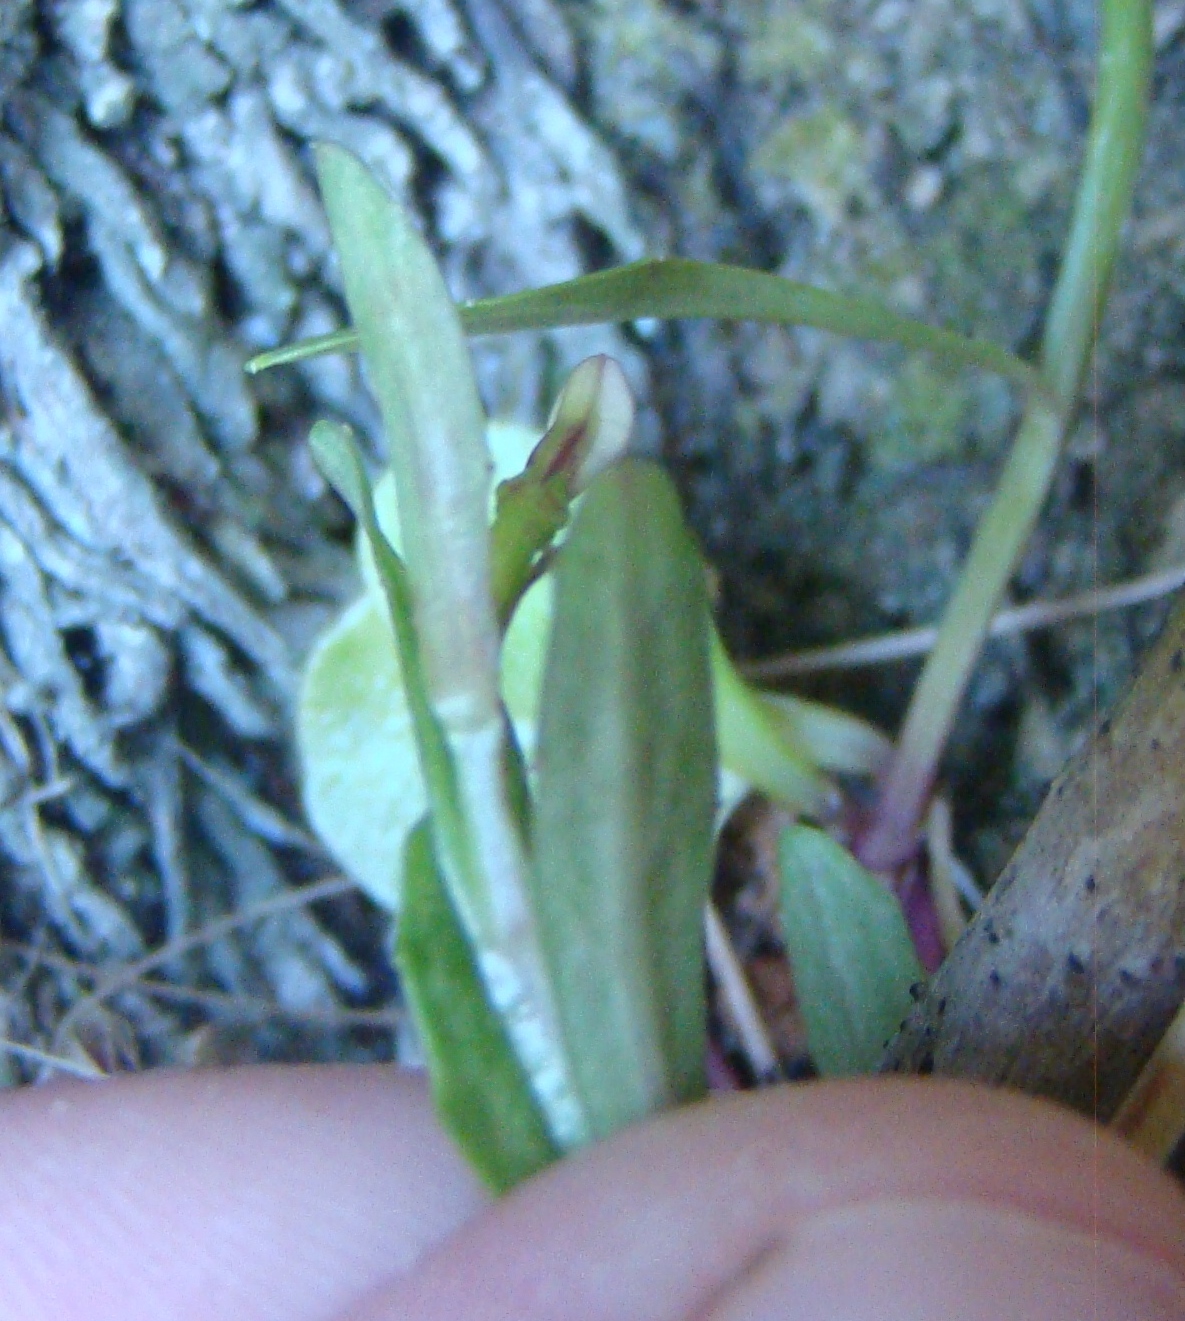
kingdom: Plantae
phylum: Tracheophyta
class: Magnoliopsida
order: Asterales
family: Campanulaceae
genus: Lobelia
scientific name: Lobelia anceps
